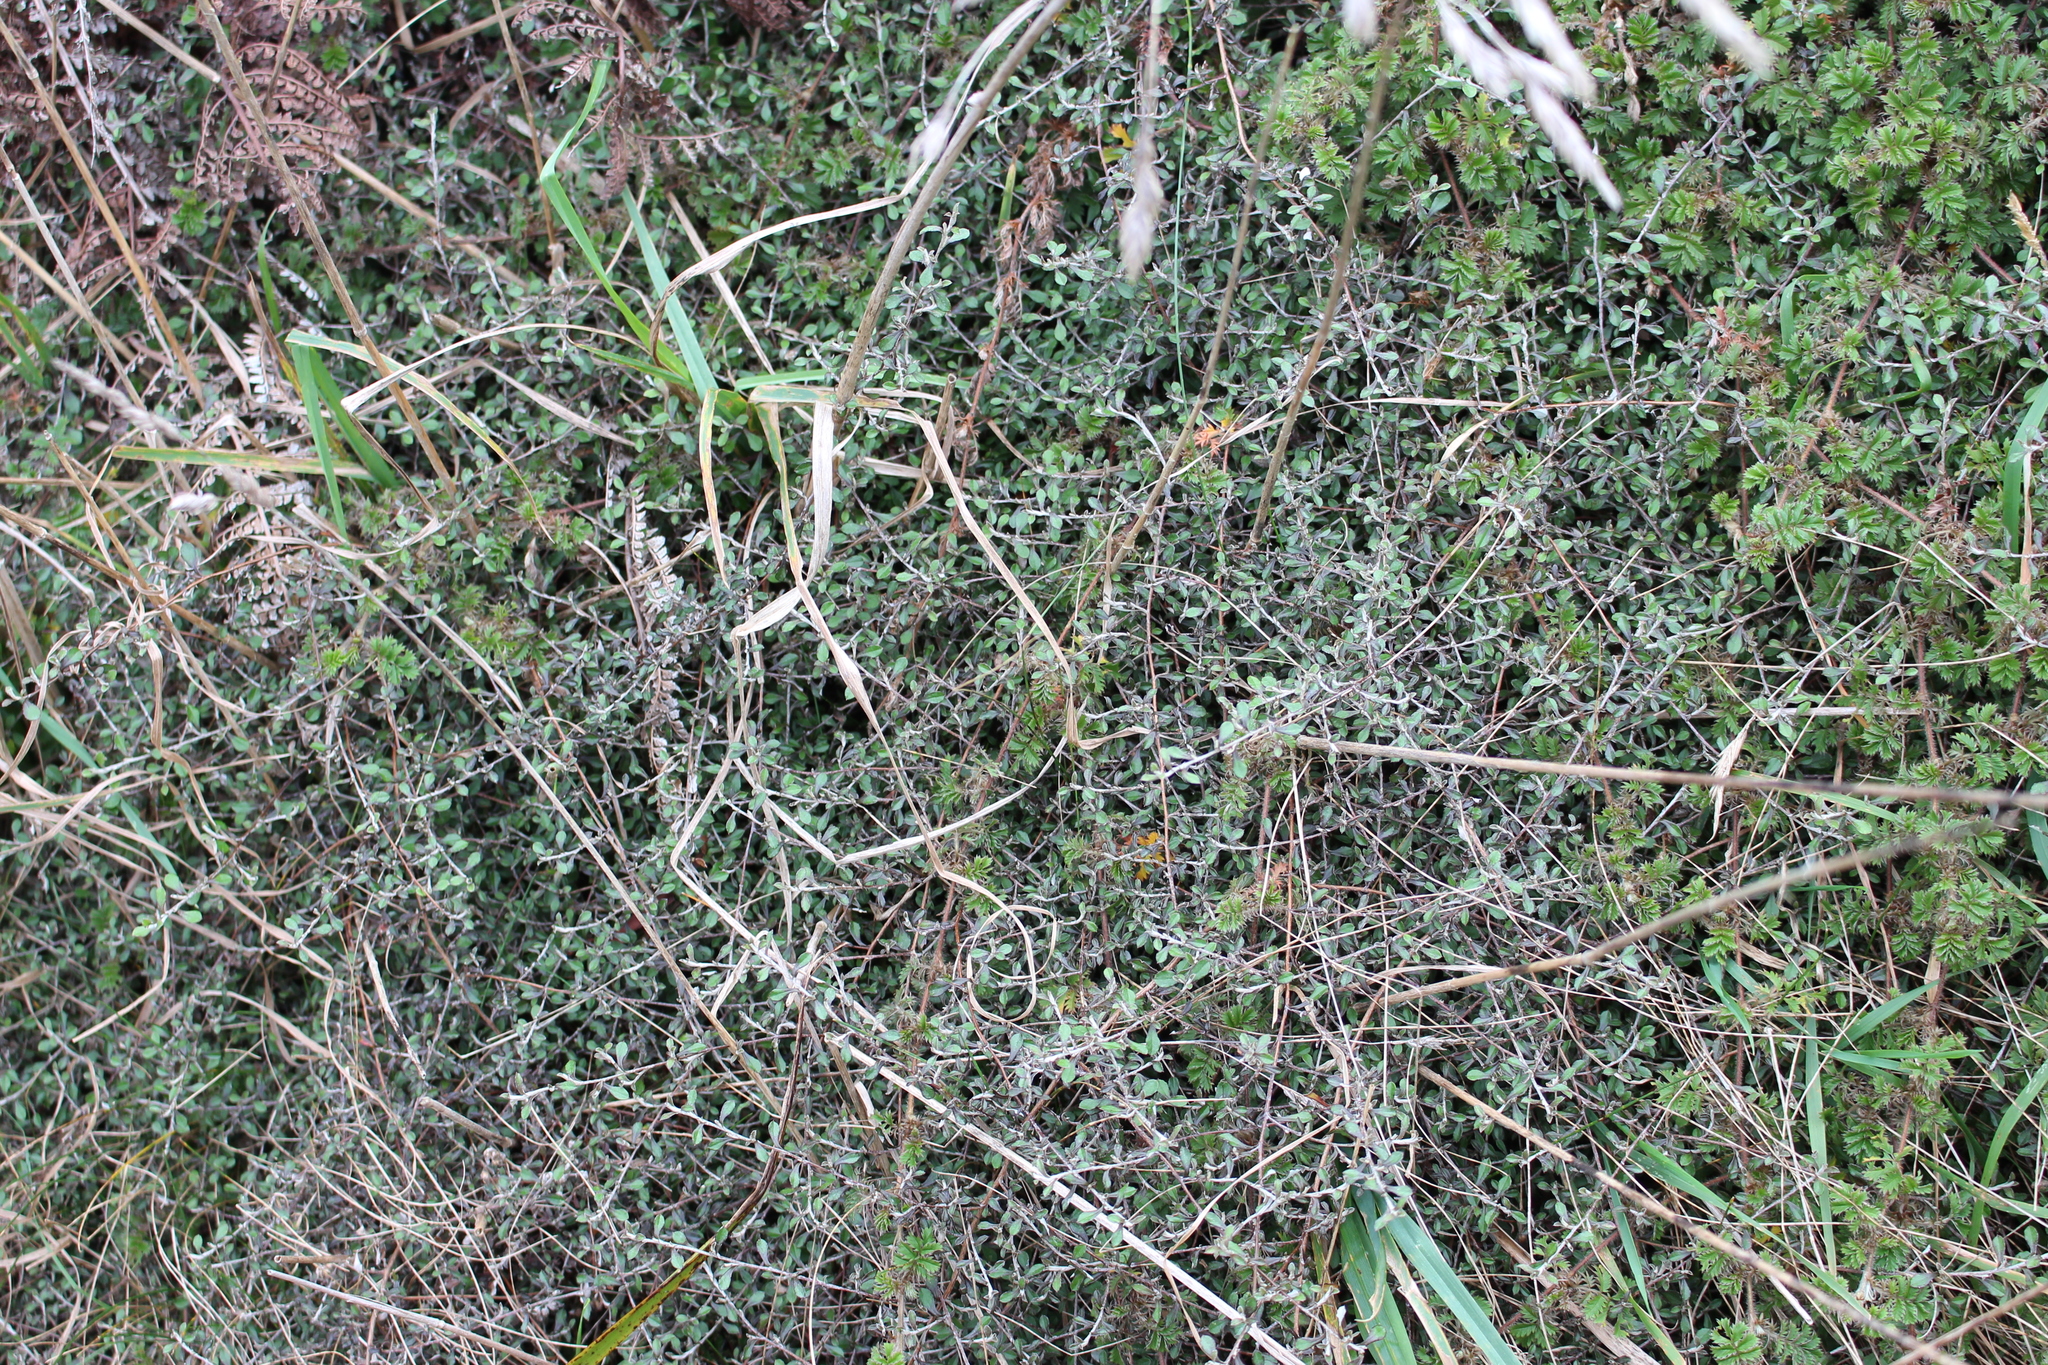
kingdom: Plantae
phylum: Tracheophyta
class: Magnoliopsida
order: Asterales
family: Argophyllaceae
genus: Corokia
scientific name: Corokia cotoneaster
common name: Wire nettingbush
